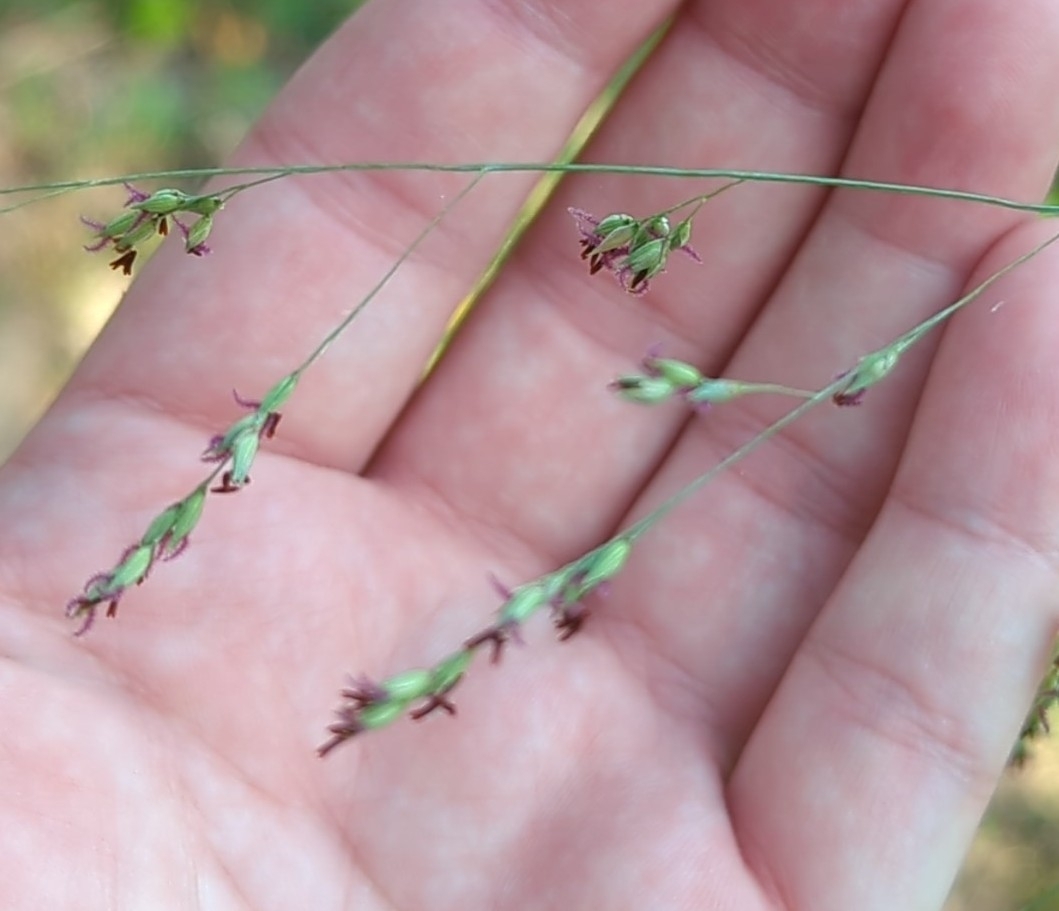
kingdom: Plantae
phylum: Tracheophyta
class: Liliopsida
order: Poales
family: Poaceae
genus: Panicum
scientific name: Panicum virgatum
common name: Switchgrass
